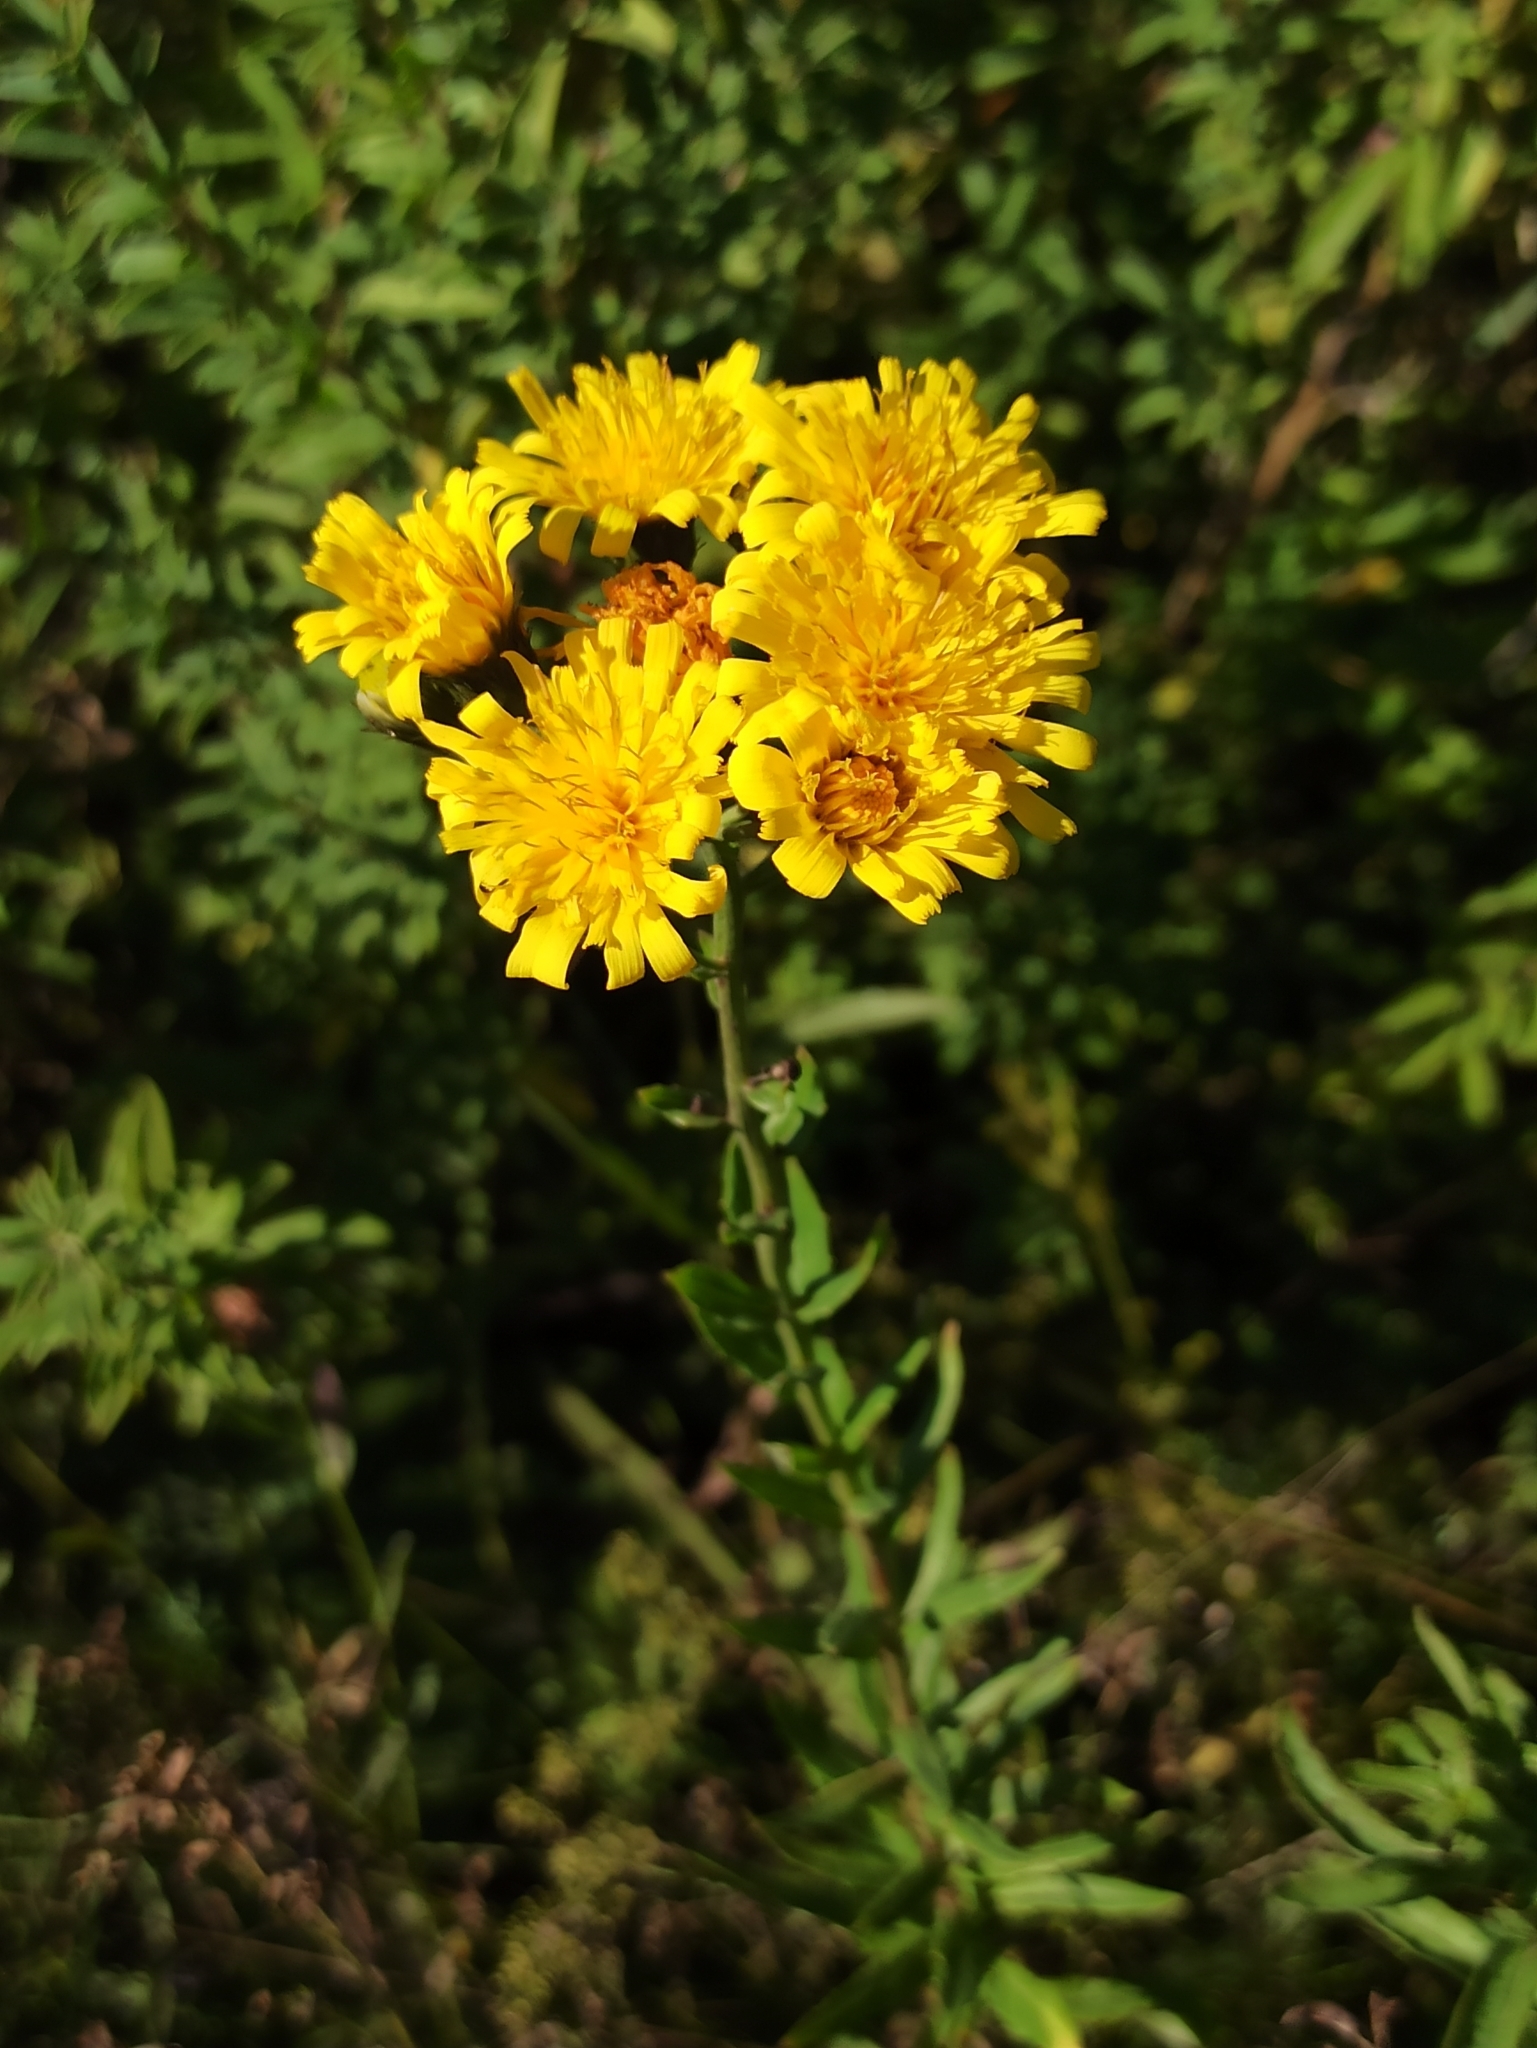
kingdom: Plantae
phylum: Tracheophyta
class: Magnoliopsida
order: Asterales
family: Asteraceae
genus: Hieracium
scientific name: Hieracium umbellatum
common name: Northern hawkweed
